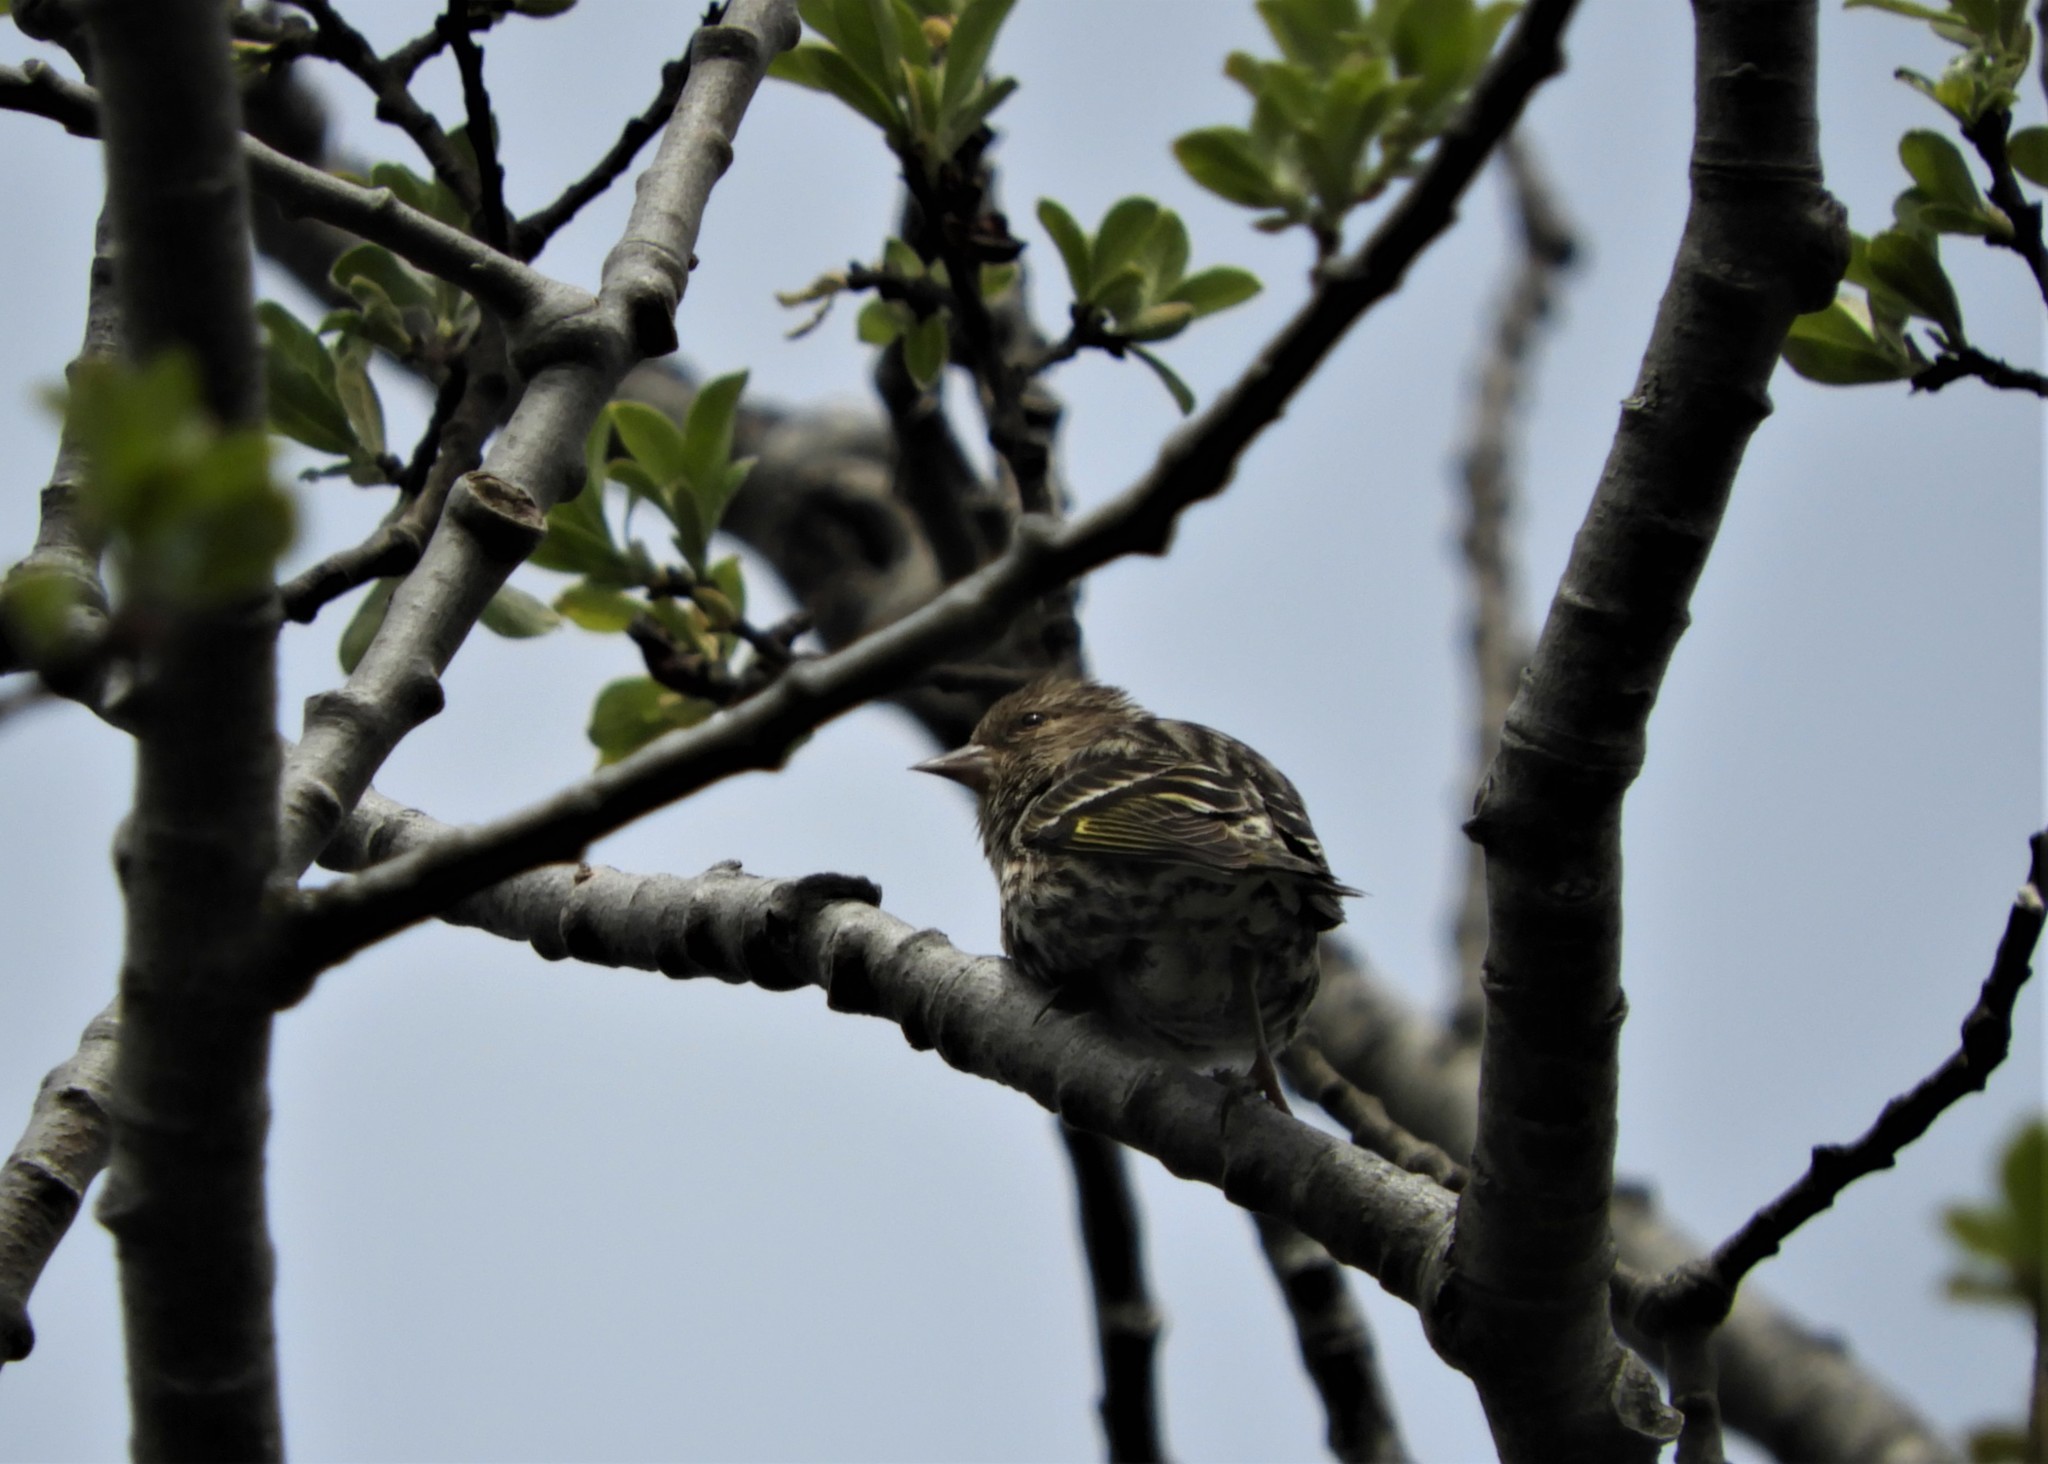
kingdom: Animalia
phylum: Chordata
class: Aves
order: Passeriformes
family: Fringillidae
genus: Spinus
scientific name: Spinus pinus
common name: Pine siskin
